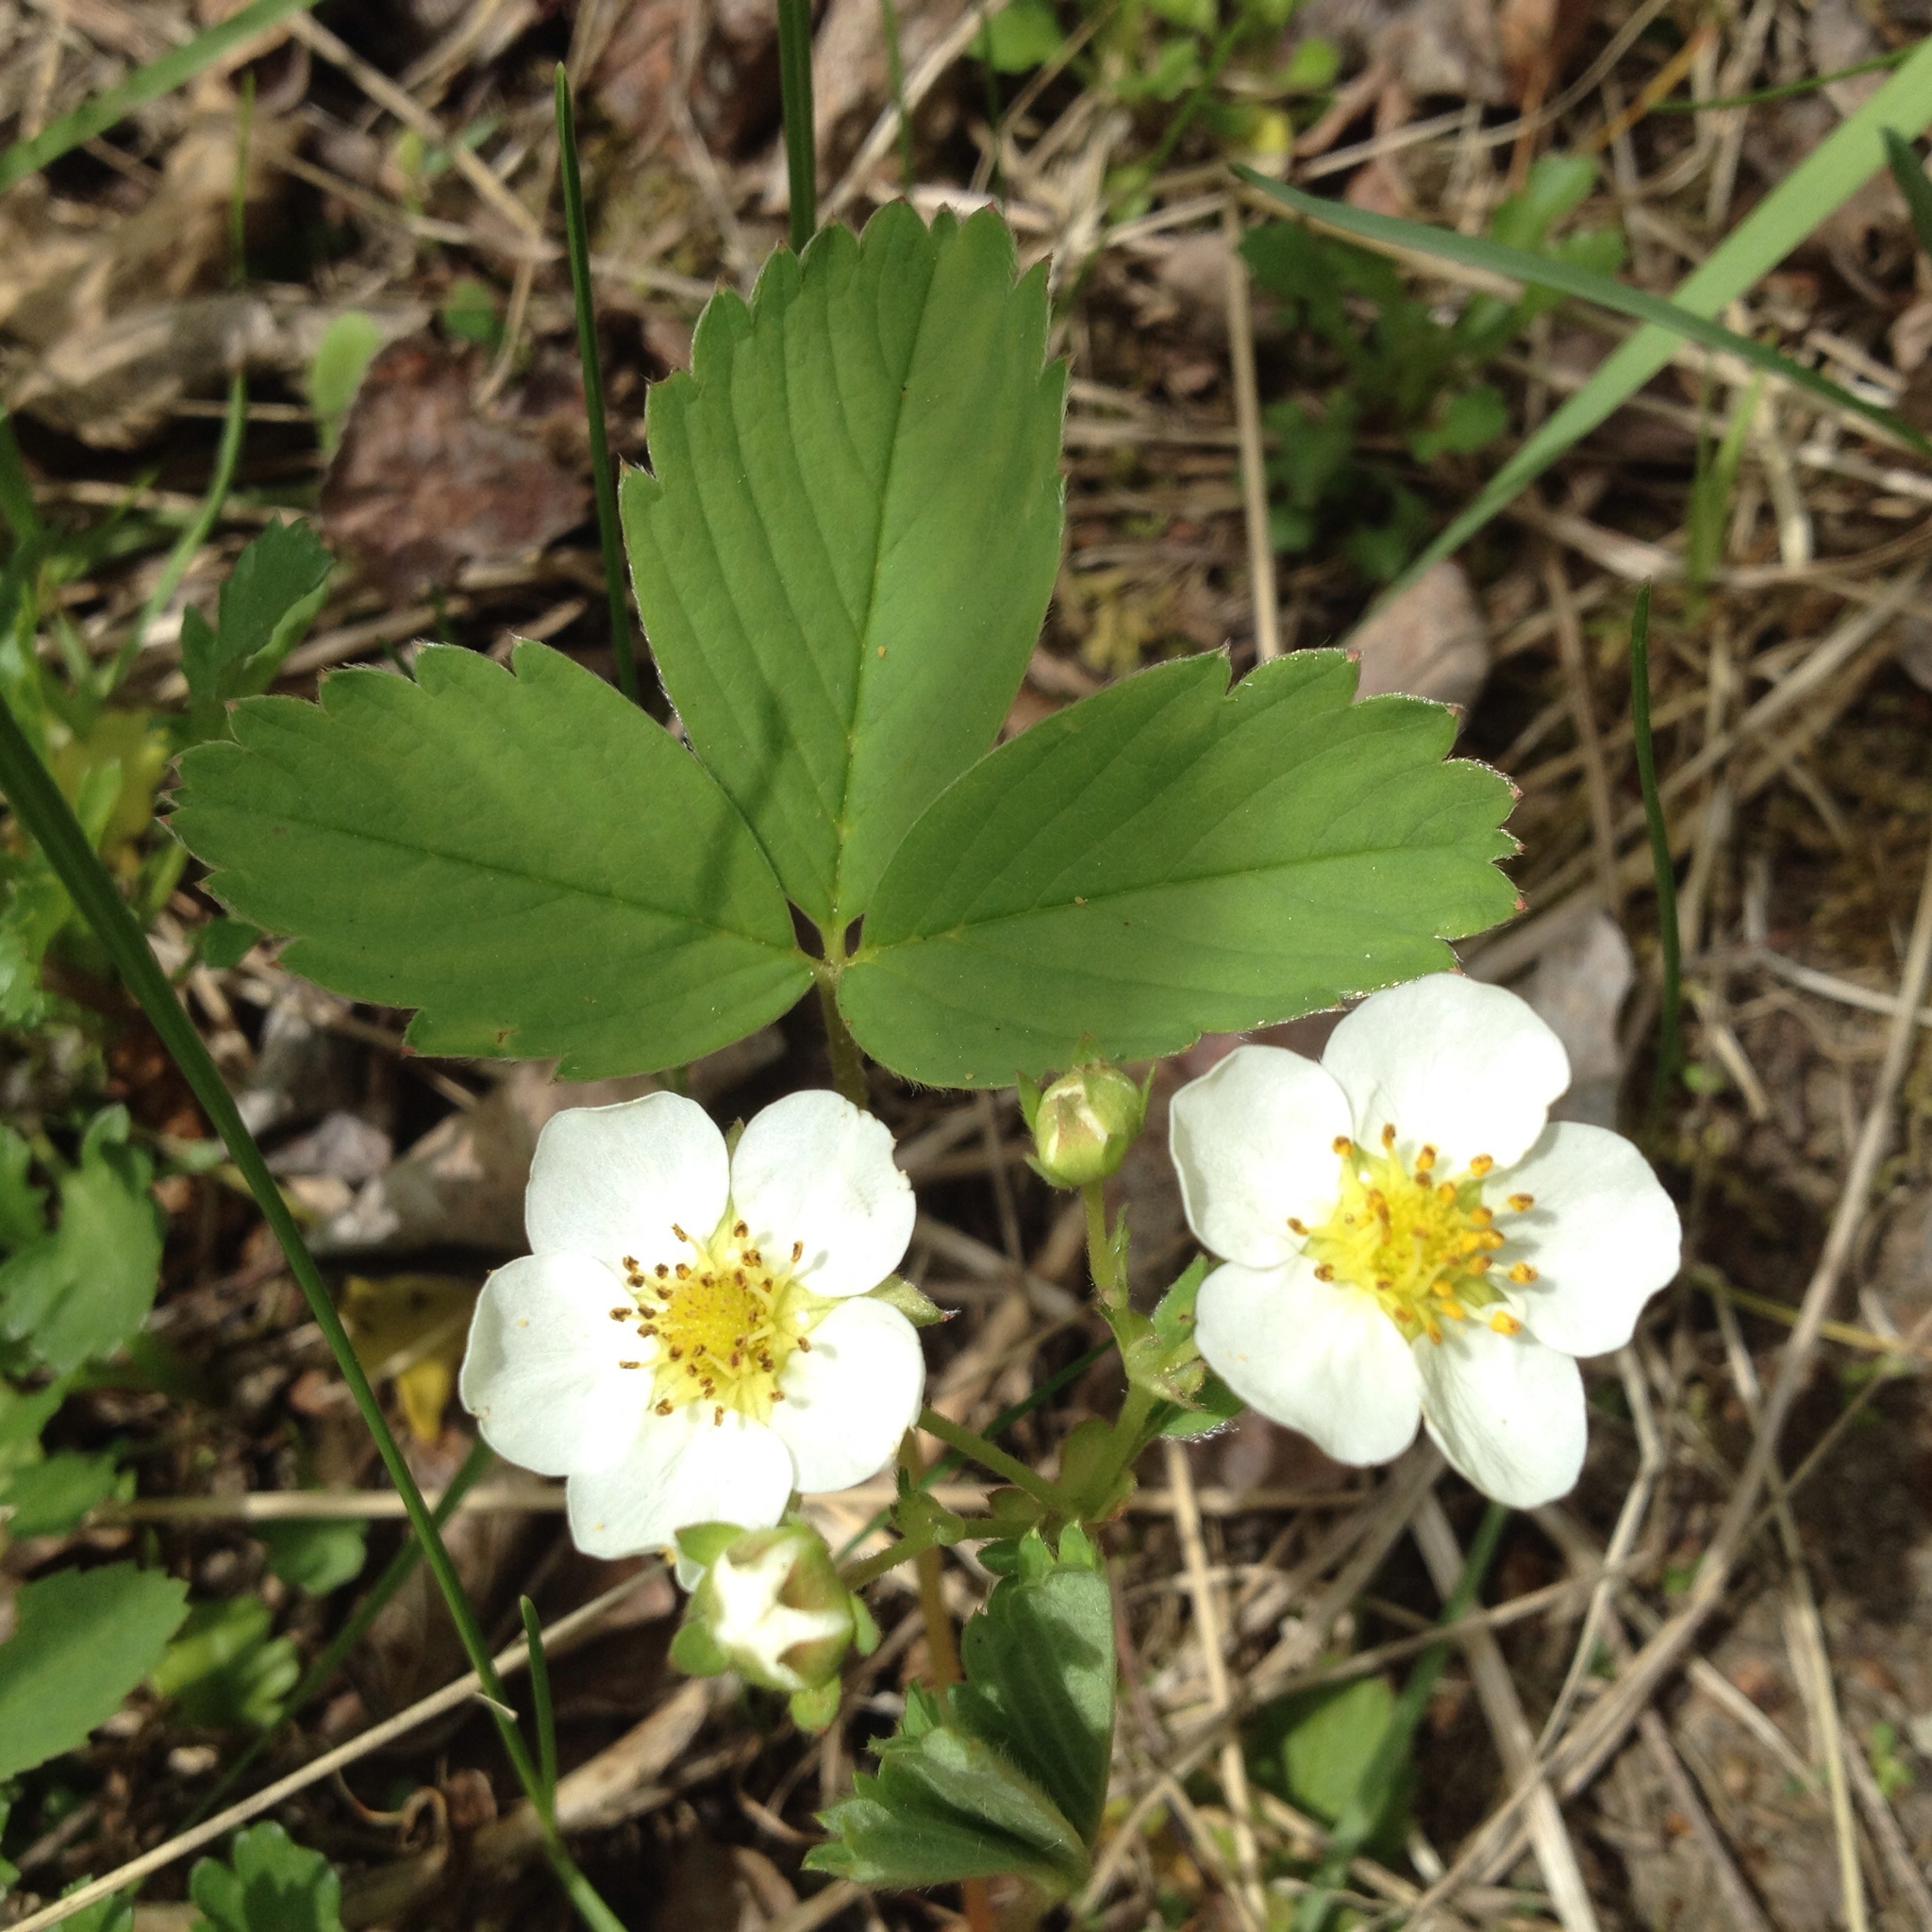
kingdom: Plantae
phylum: Tracheophyta
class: Magnoliopsida
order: Rosales
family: Rosaceae
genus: Fragaria
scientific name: Fragaria virginiana
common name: Thickleaved wild strawberry
